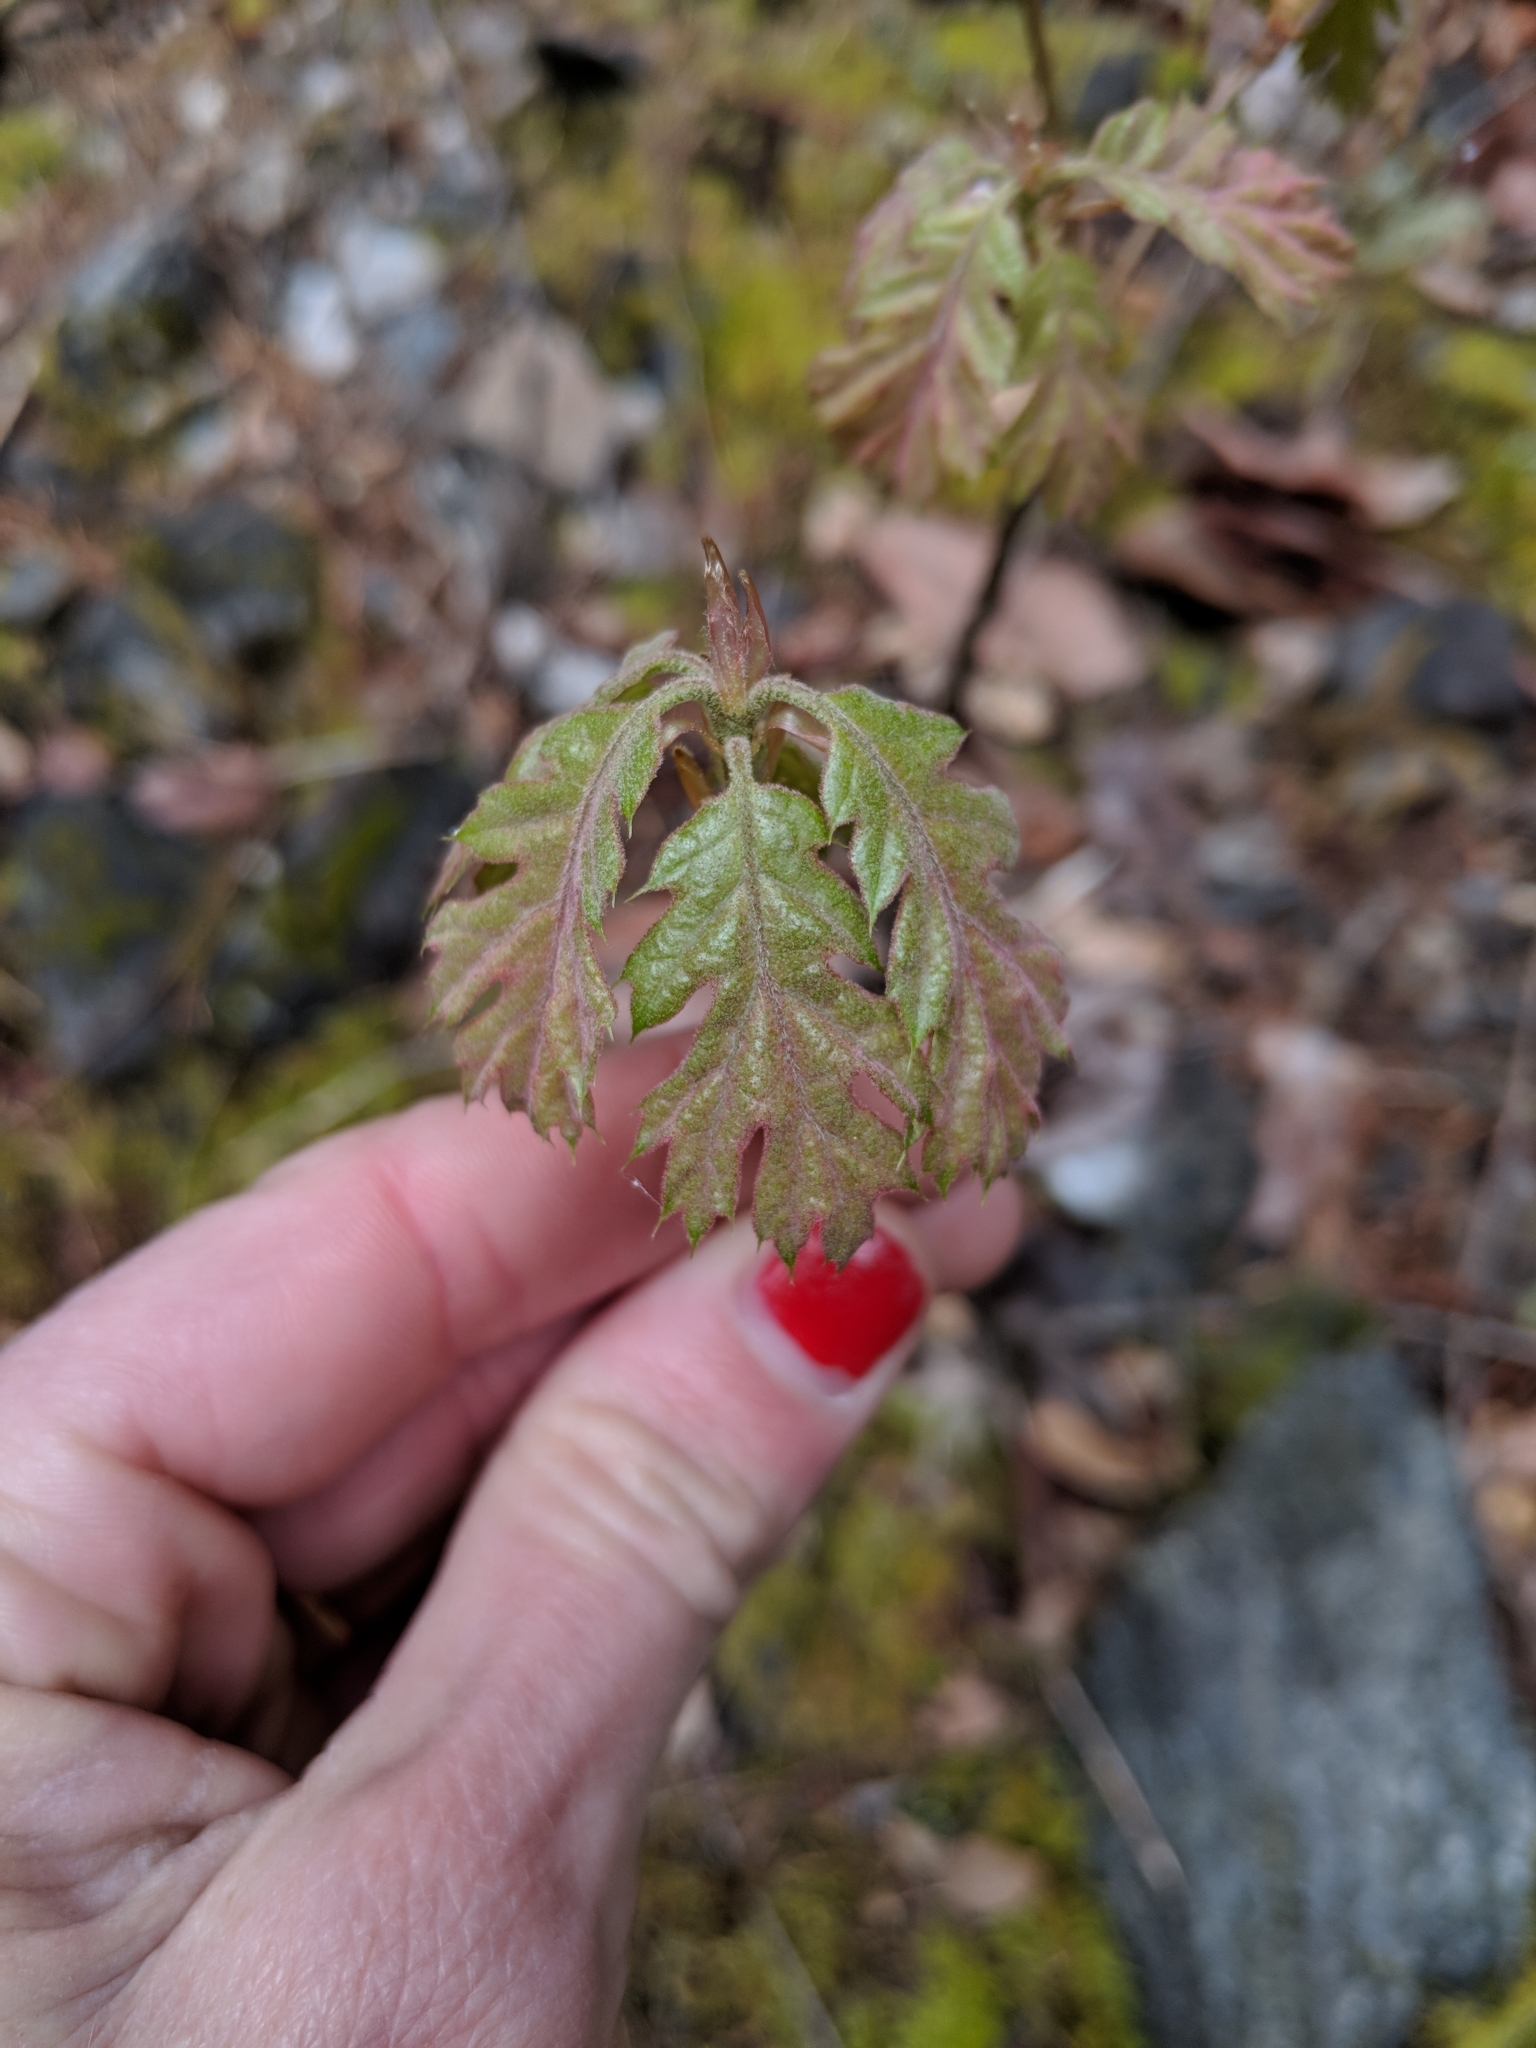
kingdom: Plantae
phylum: Tracheophyta
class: Magnoliopsida
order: Fagales
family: Fagaceae
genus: Quercus
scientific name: Quercus kelloggii
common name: California black oak
